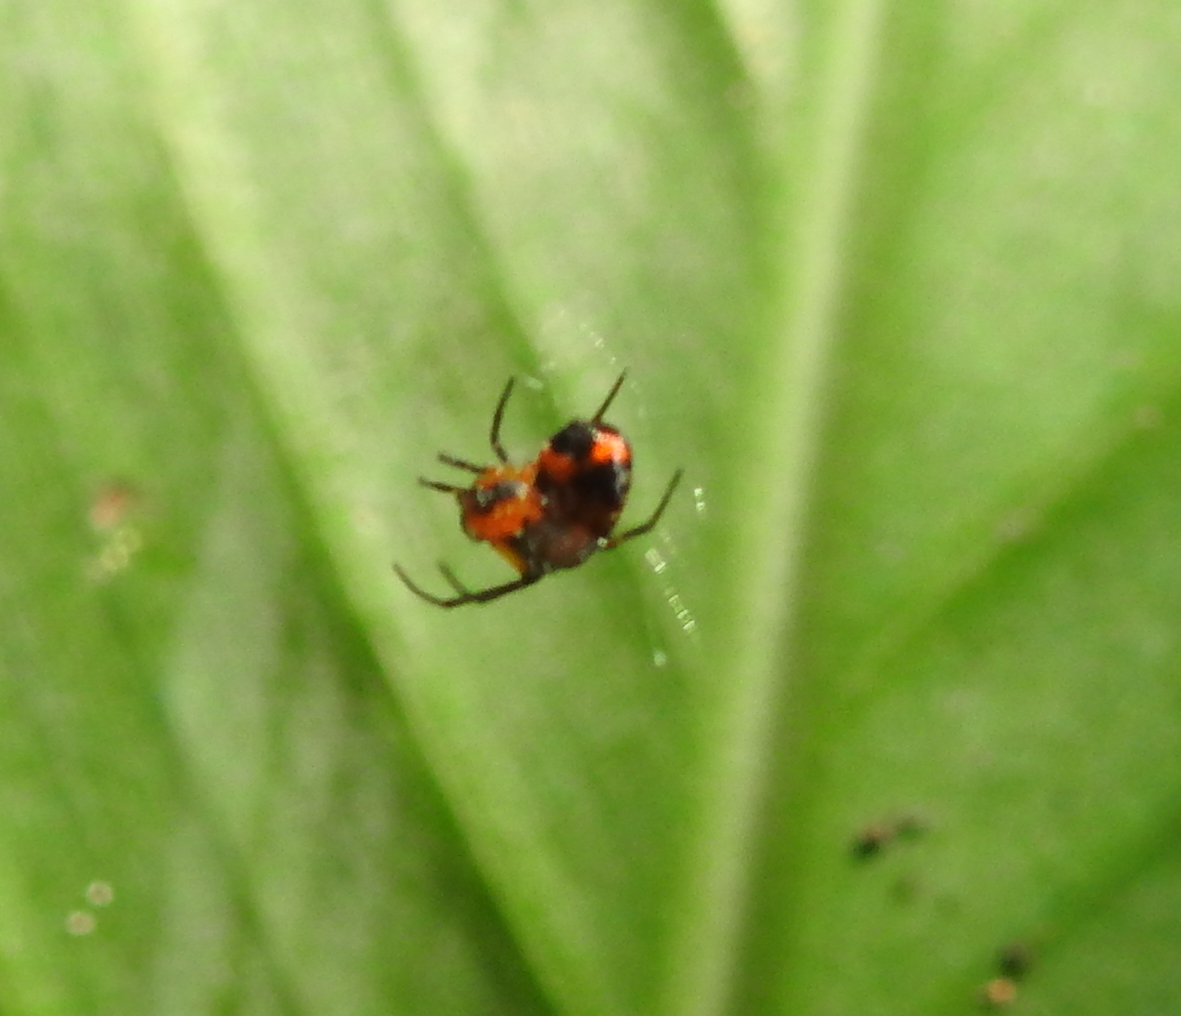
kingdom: Animalia
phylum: Arthropoda
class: Arachnida
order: Araneae
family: Tetragnathidae
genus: Leucauge
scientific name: Leucauge fastigata
